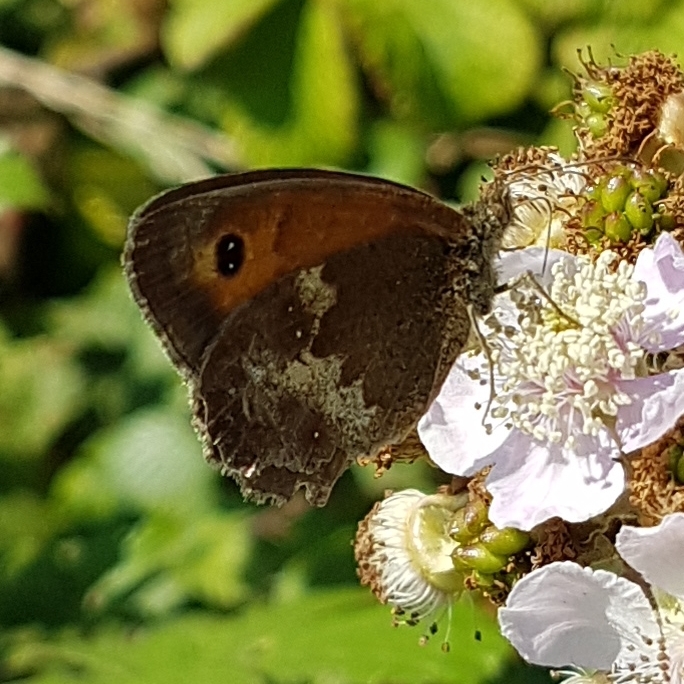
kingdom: Animalia
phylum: Arthropoda
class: Insecta
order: Lepidoptera
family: Nymphalidae
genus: Pyronia
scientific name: Pyronia tithonus
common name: Gatekeeper
